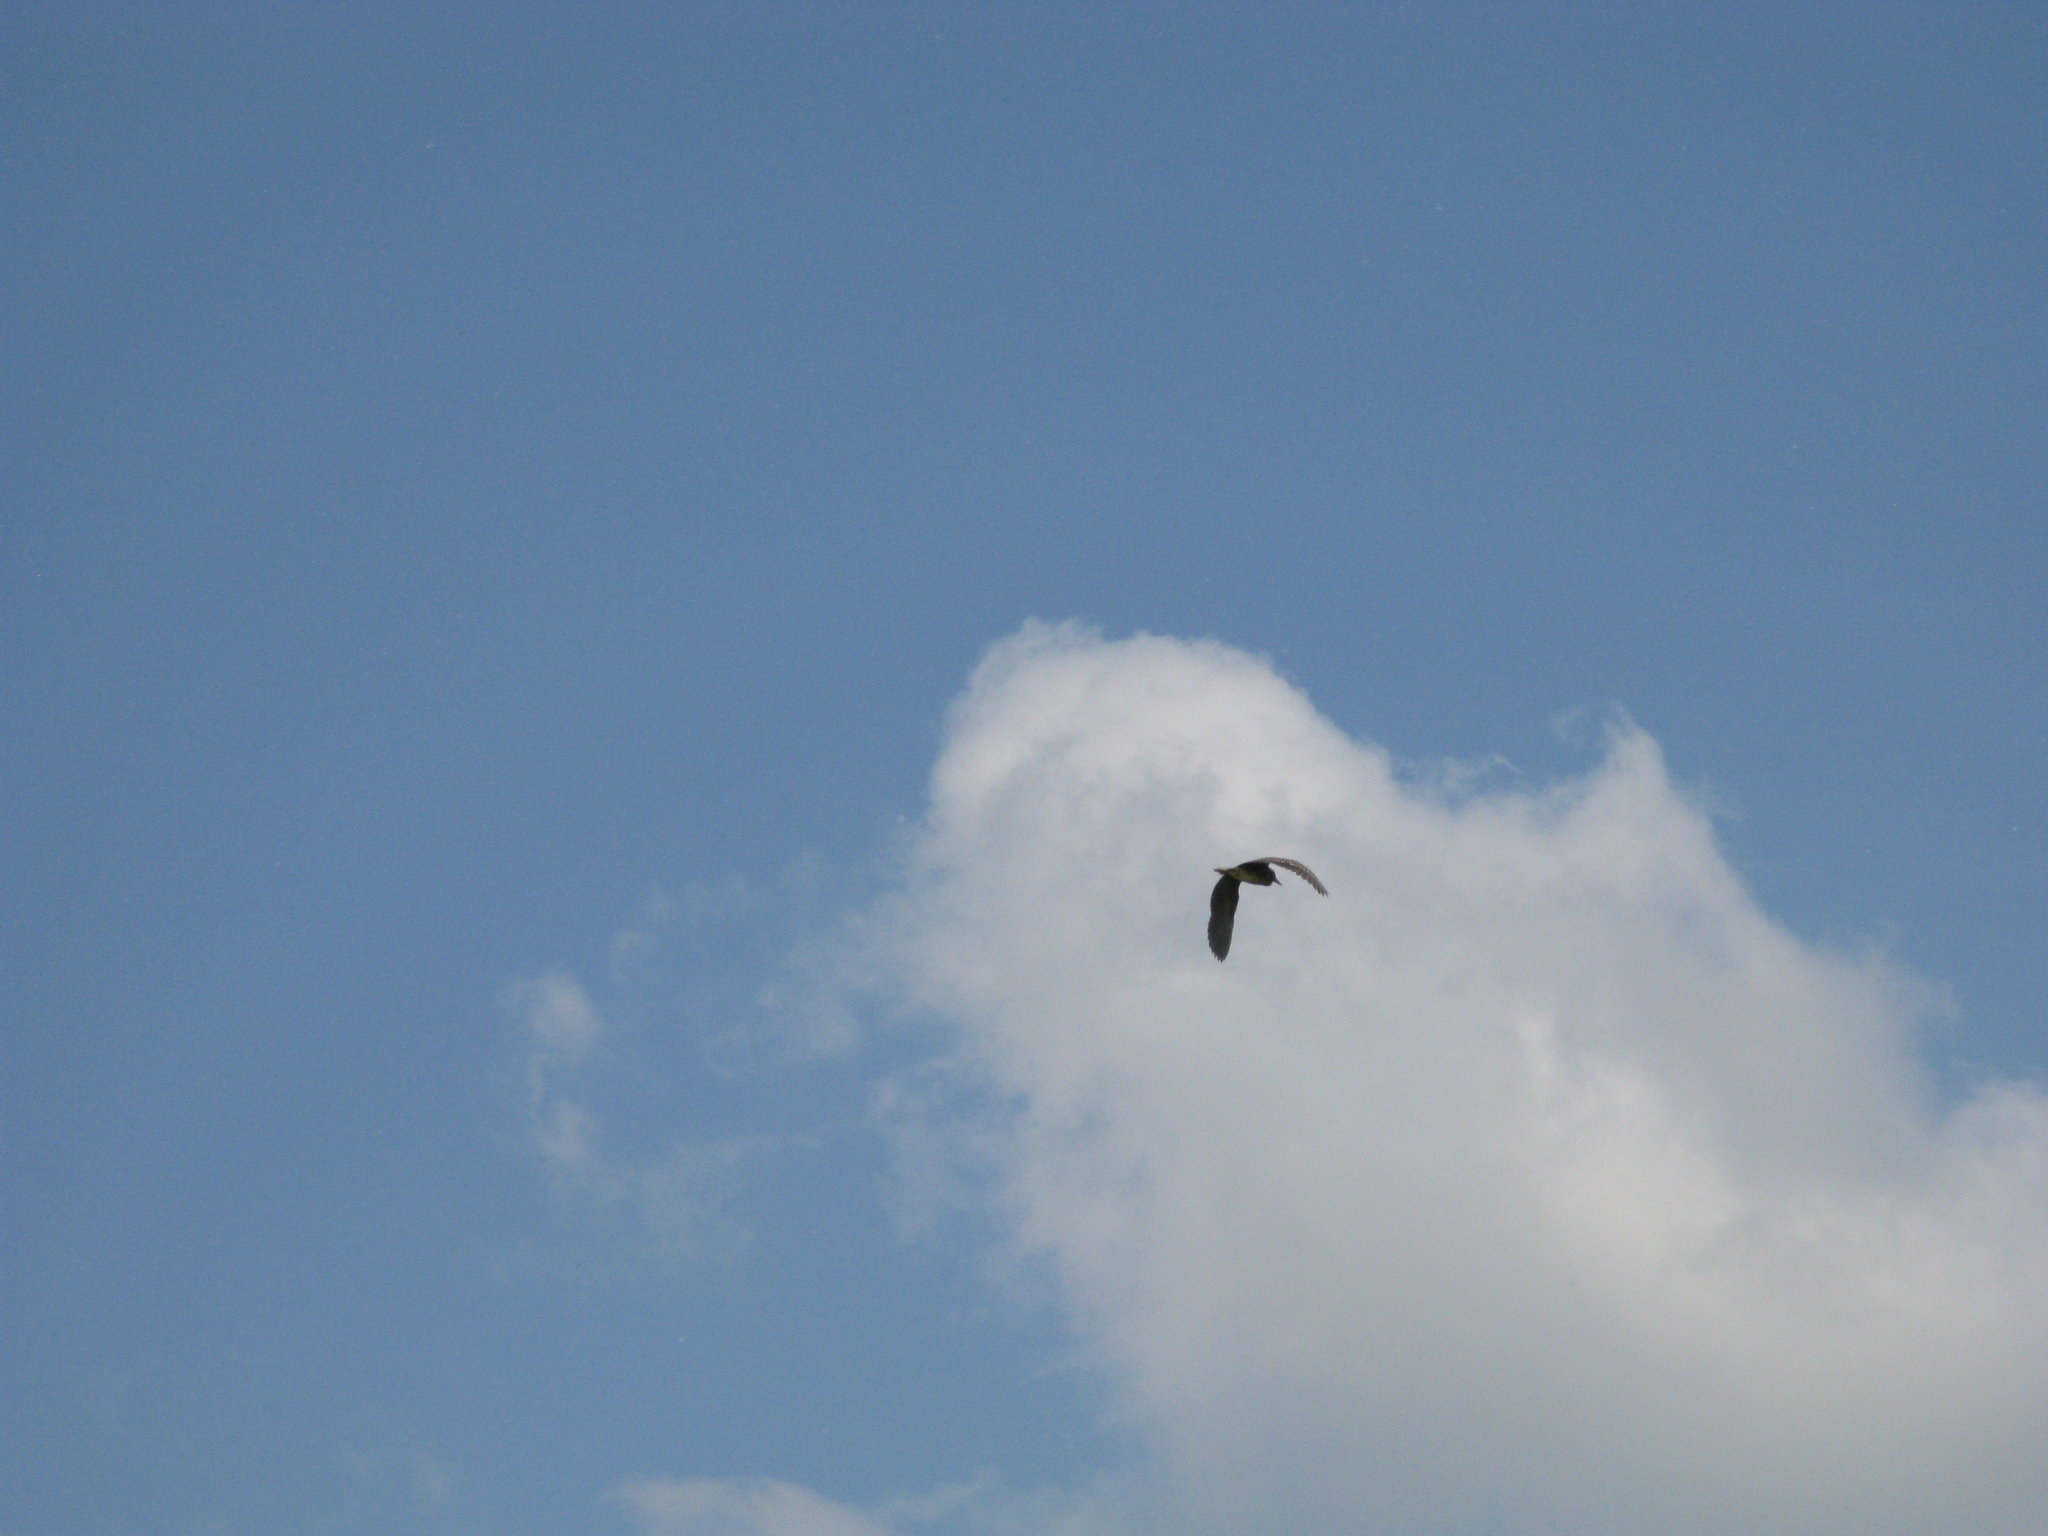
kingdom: Animalia
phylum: Chordata
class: Aves
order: Pelecaniformes
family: Ardeidae
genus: Nycticorax
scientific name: Nycticorax nycticorax
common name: Black-crowned night heron
